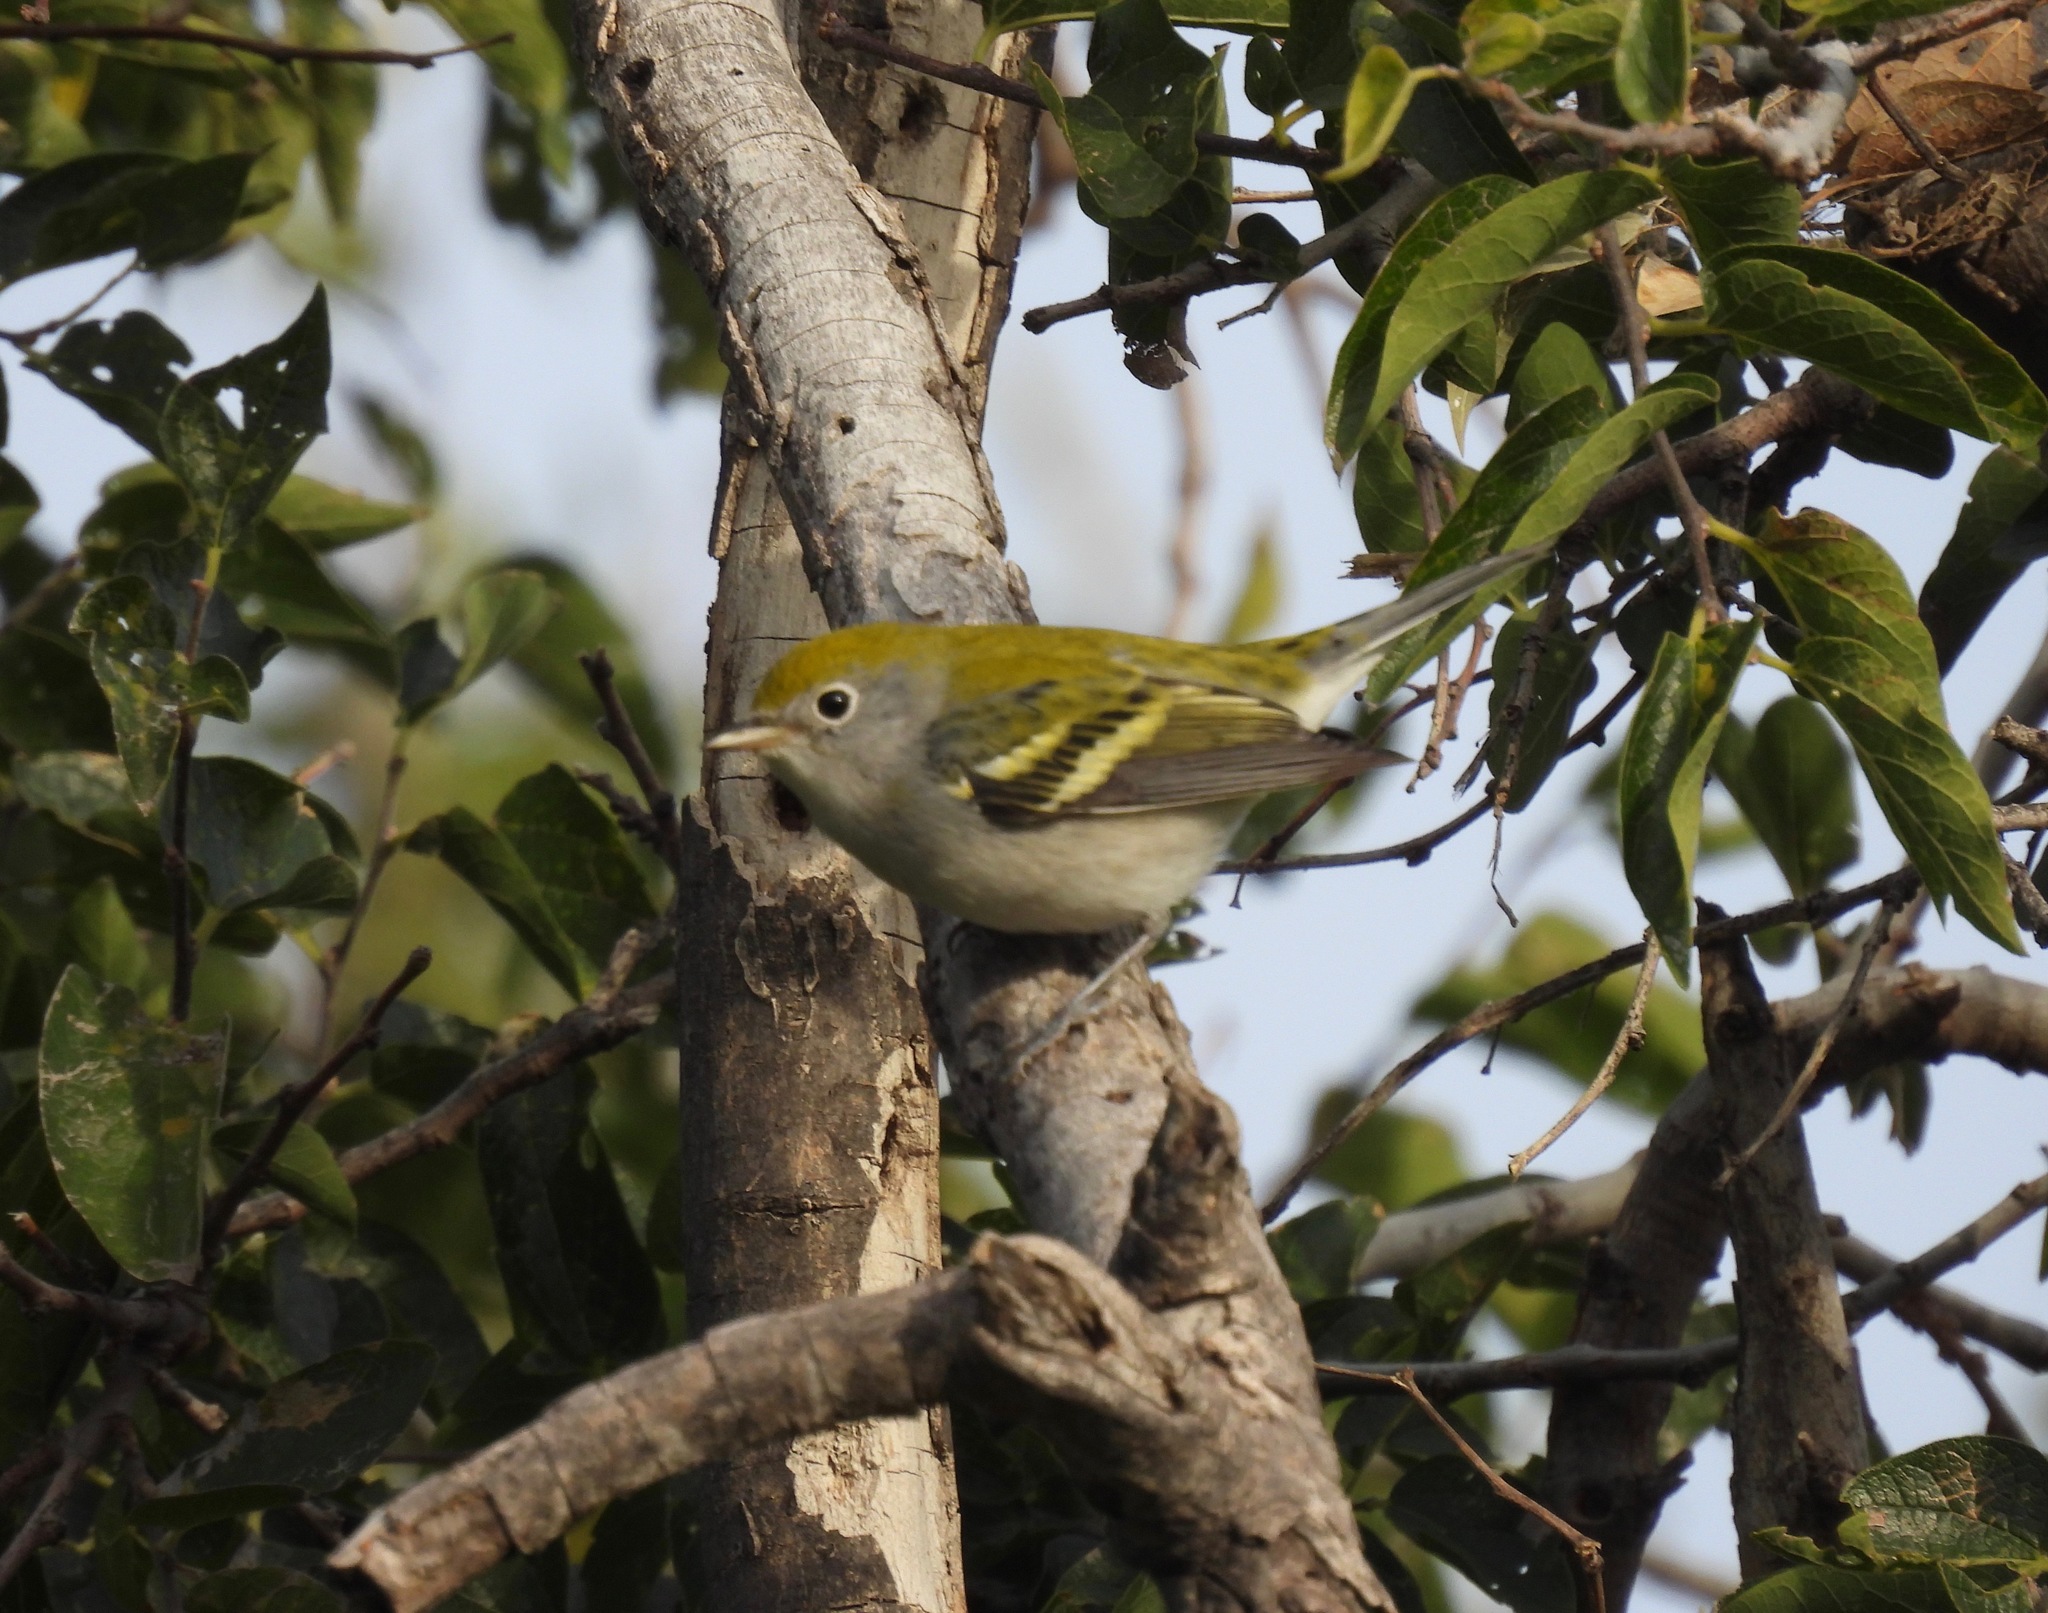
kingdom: Animalia
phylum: Chordata
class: Aves
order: Passeriformes
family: Parulidae
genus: Setophaga
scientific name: Setophaga pensylvanica
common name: Chestnut-sided warbler
